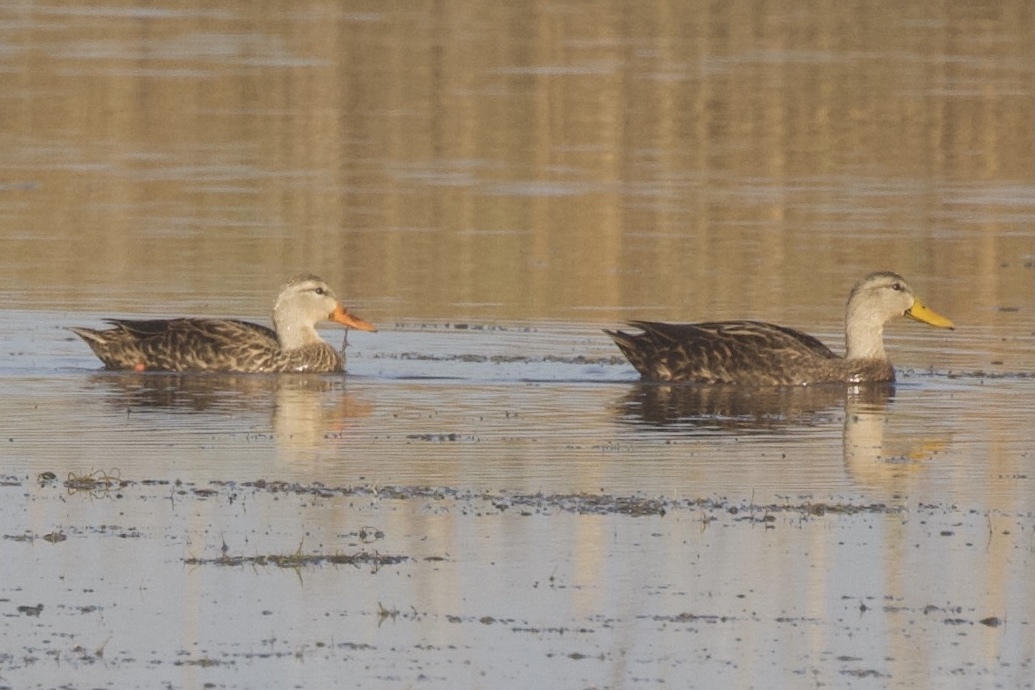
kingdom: Animalia
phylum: Chordata
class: Aves
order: Anseriformes
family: Anatidae
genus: Anas
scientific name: Anas fulvigula
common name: Mottled duck
